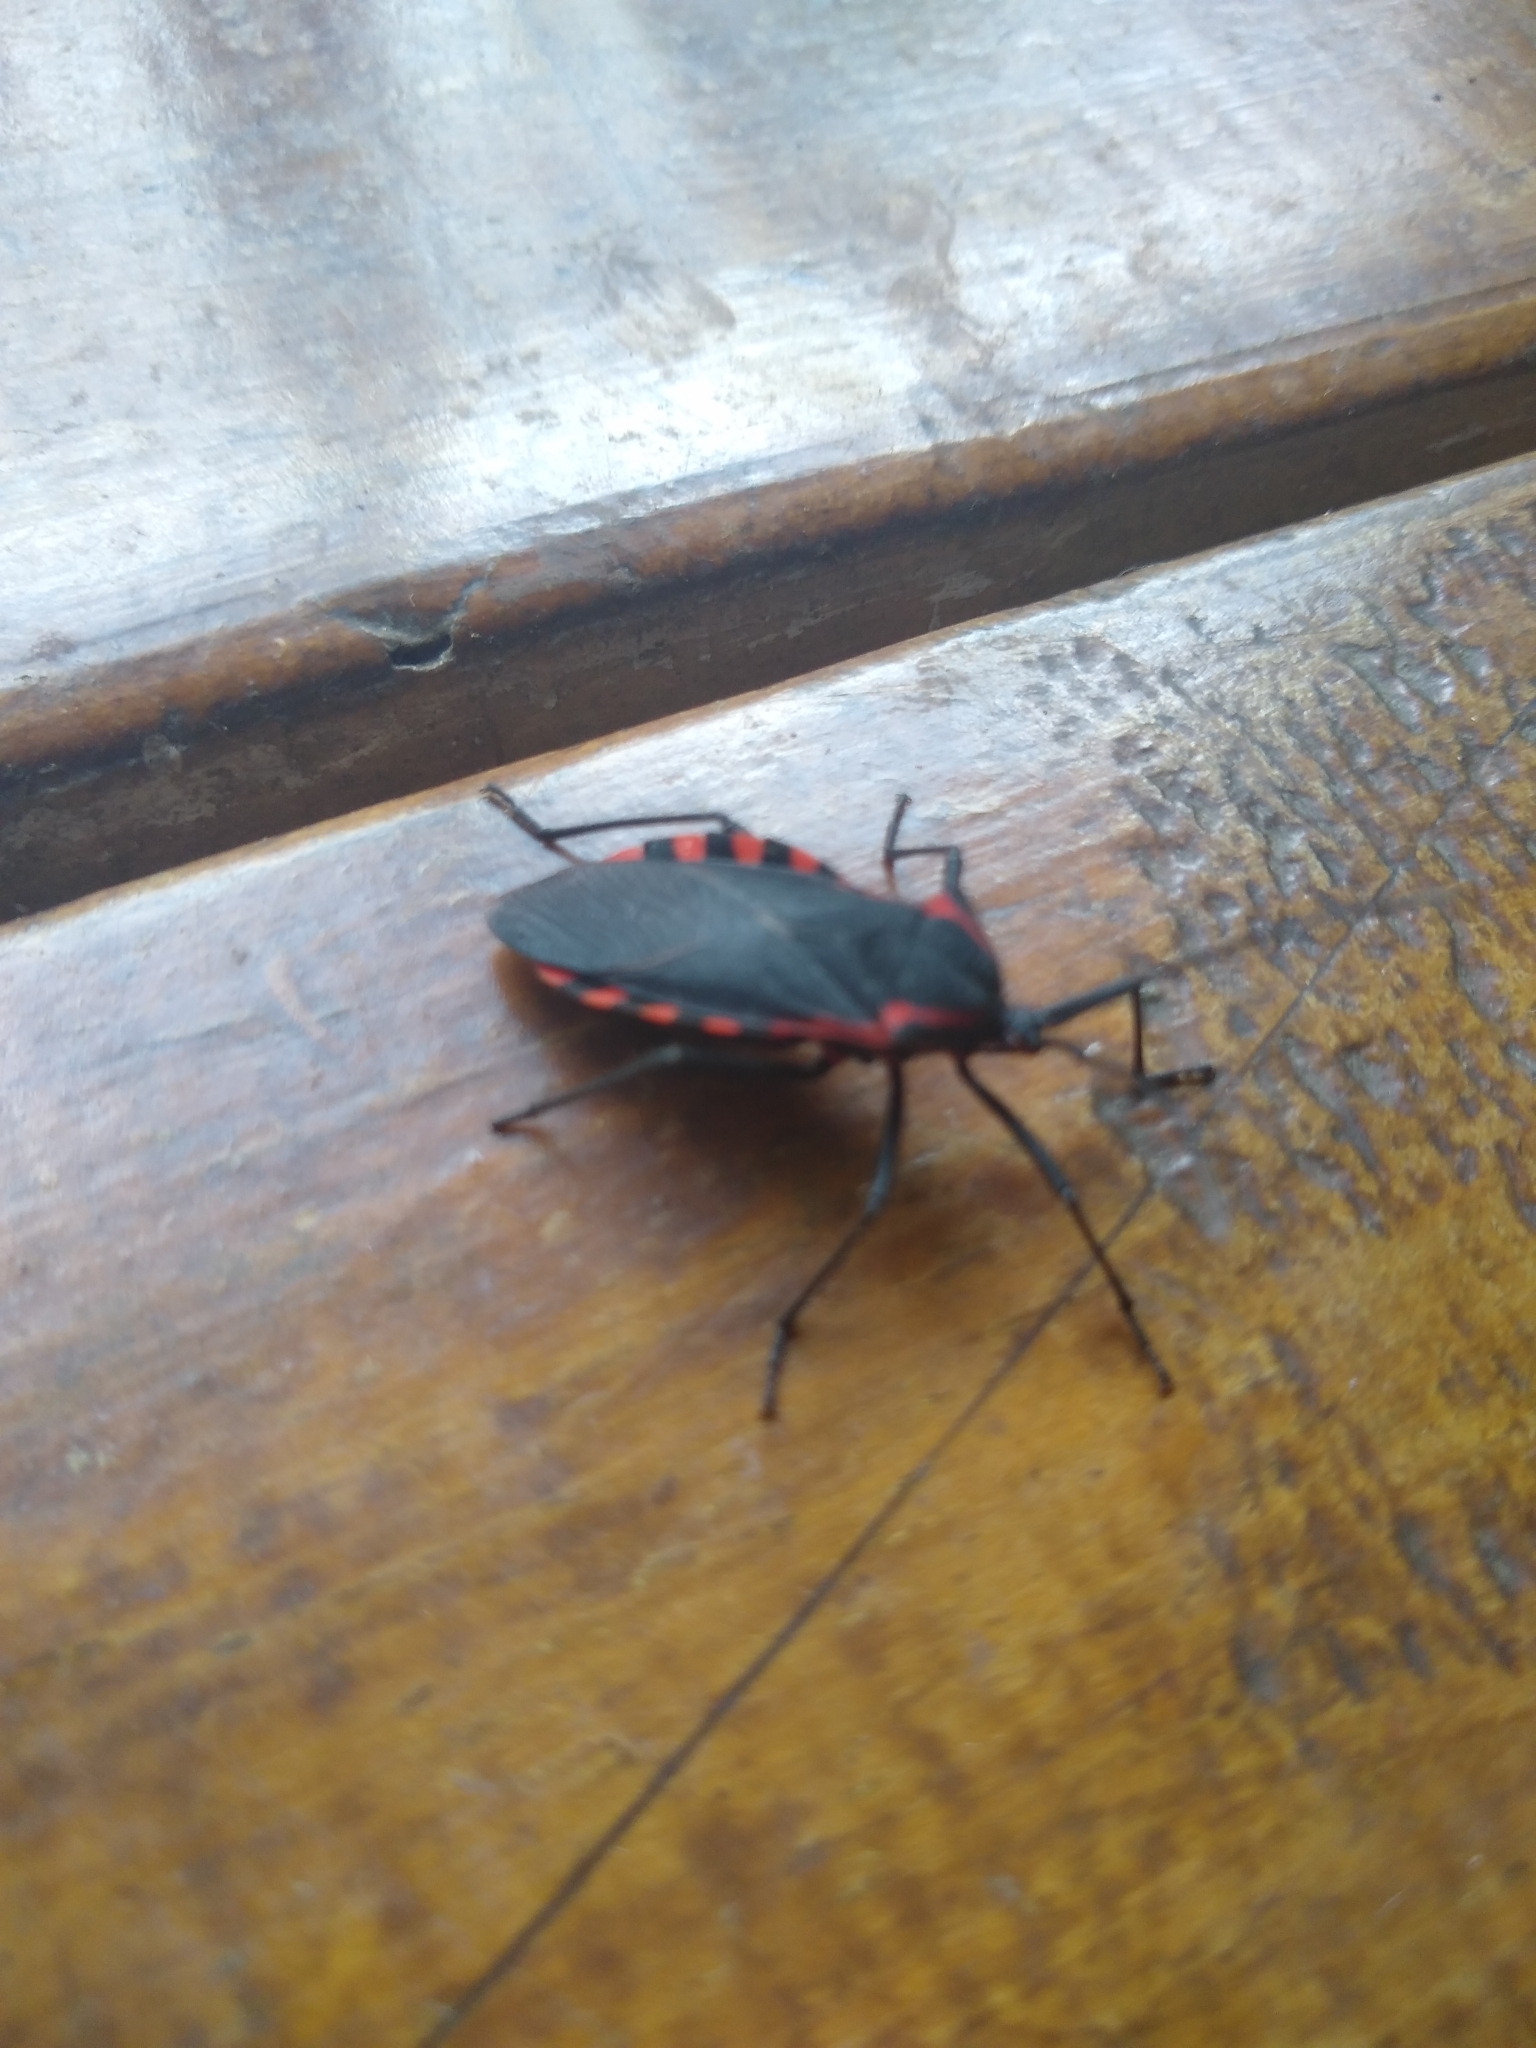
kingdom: Animalia
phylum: Arthropoda
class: Insecta
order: Hemiptera
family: Coreidae
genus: Sephina
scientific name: Sephina esquivalae
